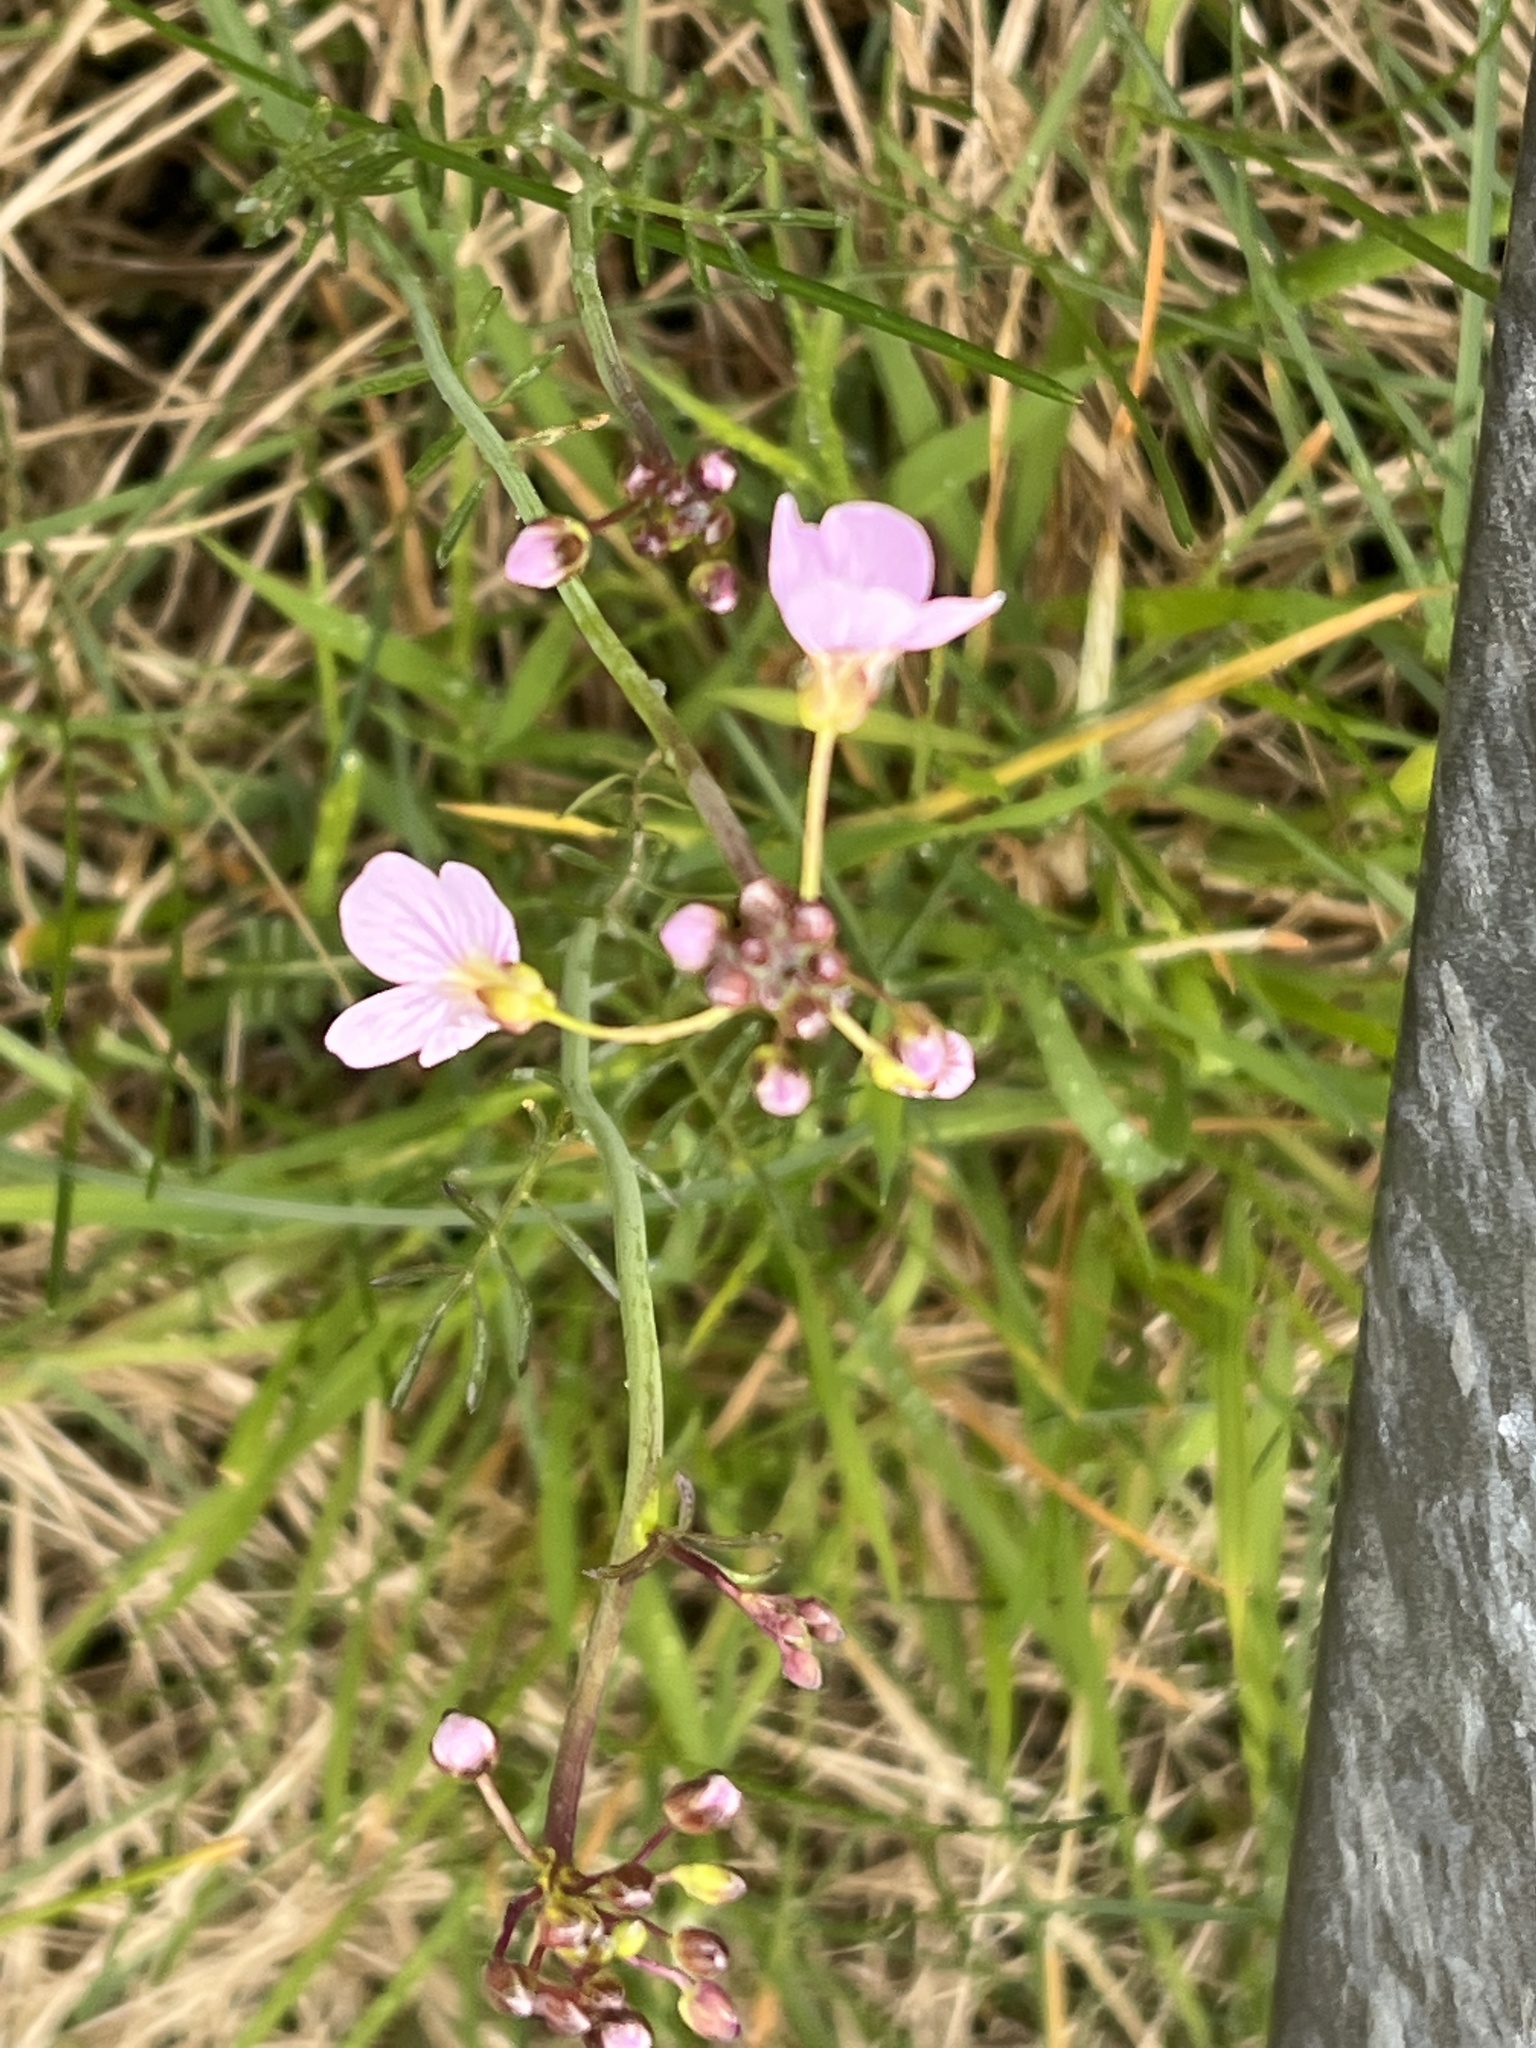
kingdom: Plantae
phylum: Tracheophyta
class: Magnoliopsida
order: Brassicales
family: Brassicaceae
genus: Cardamine
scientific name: Cardamine pratensis
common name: Cuckoo flower
